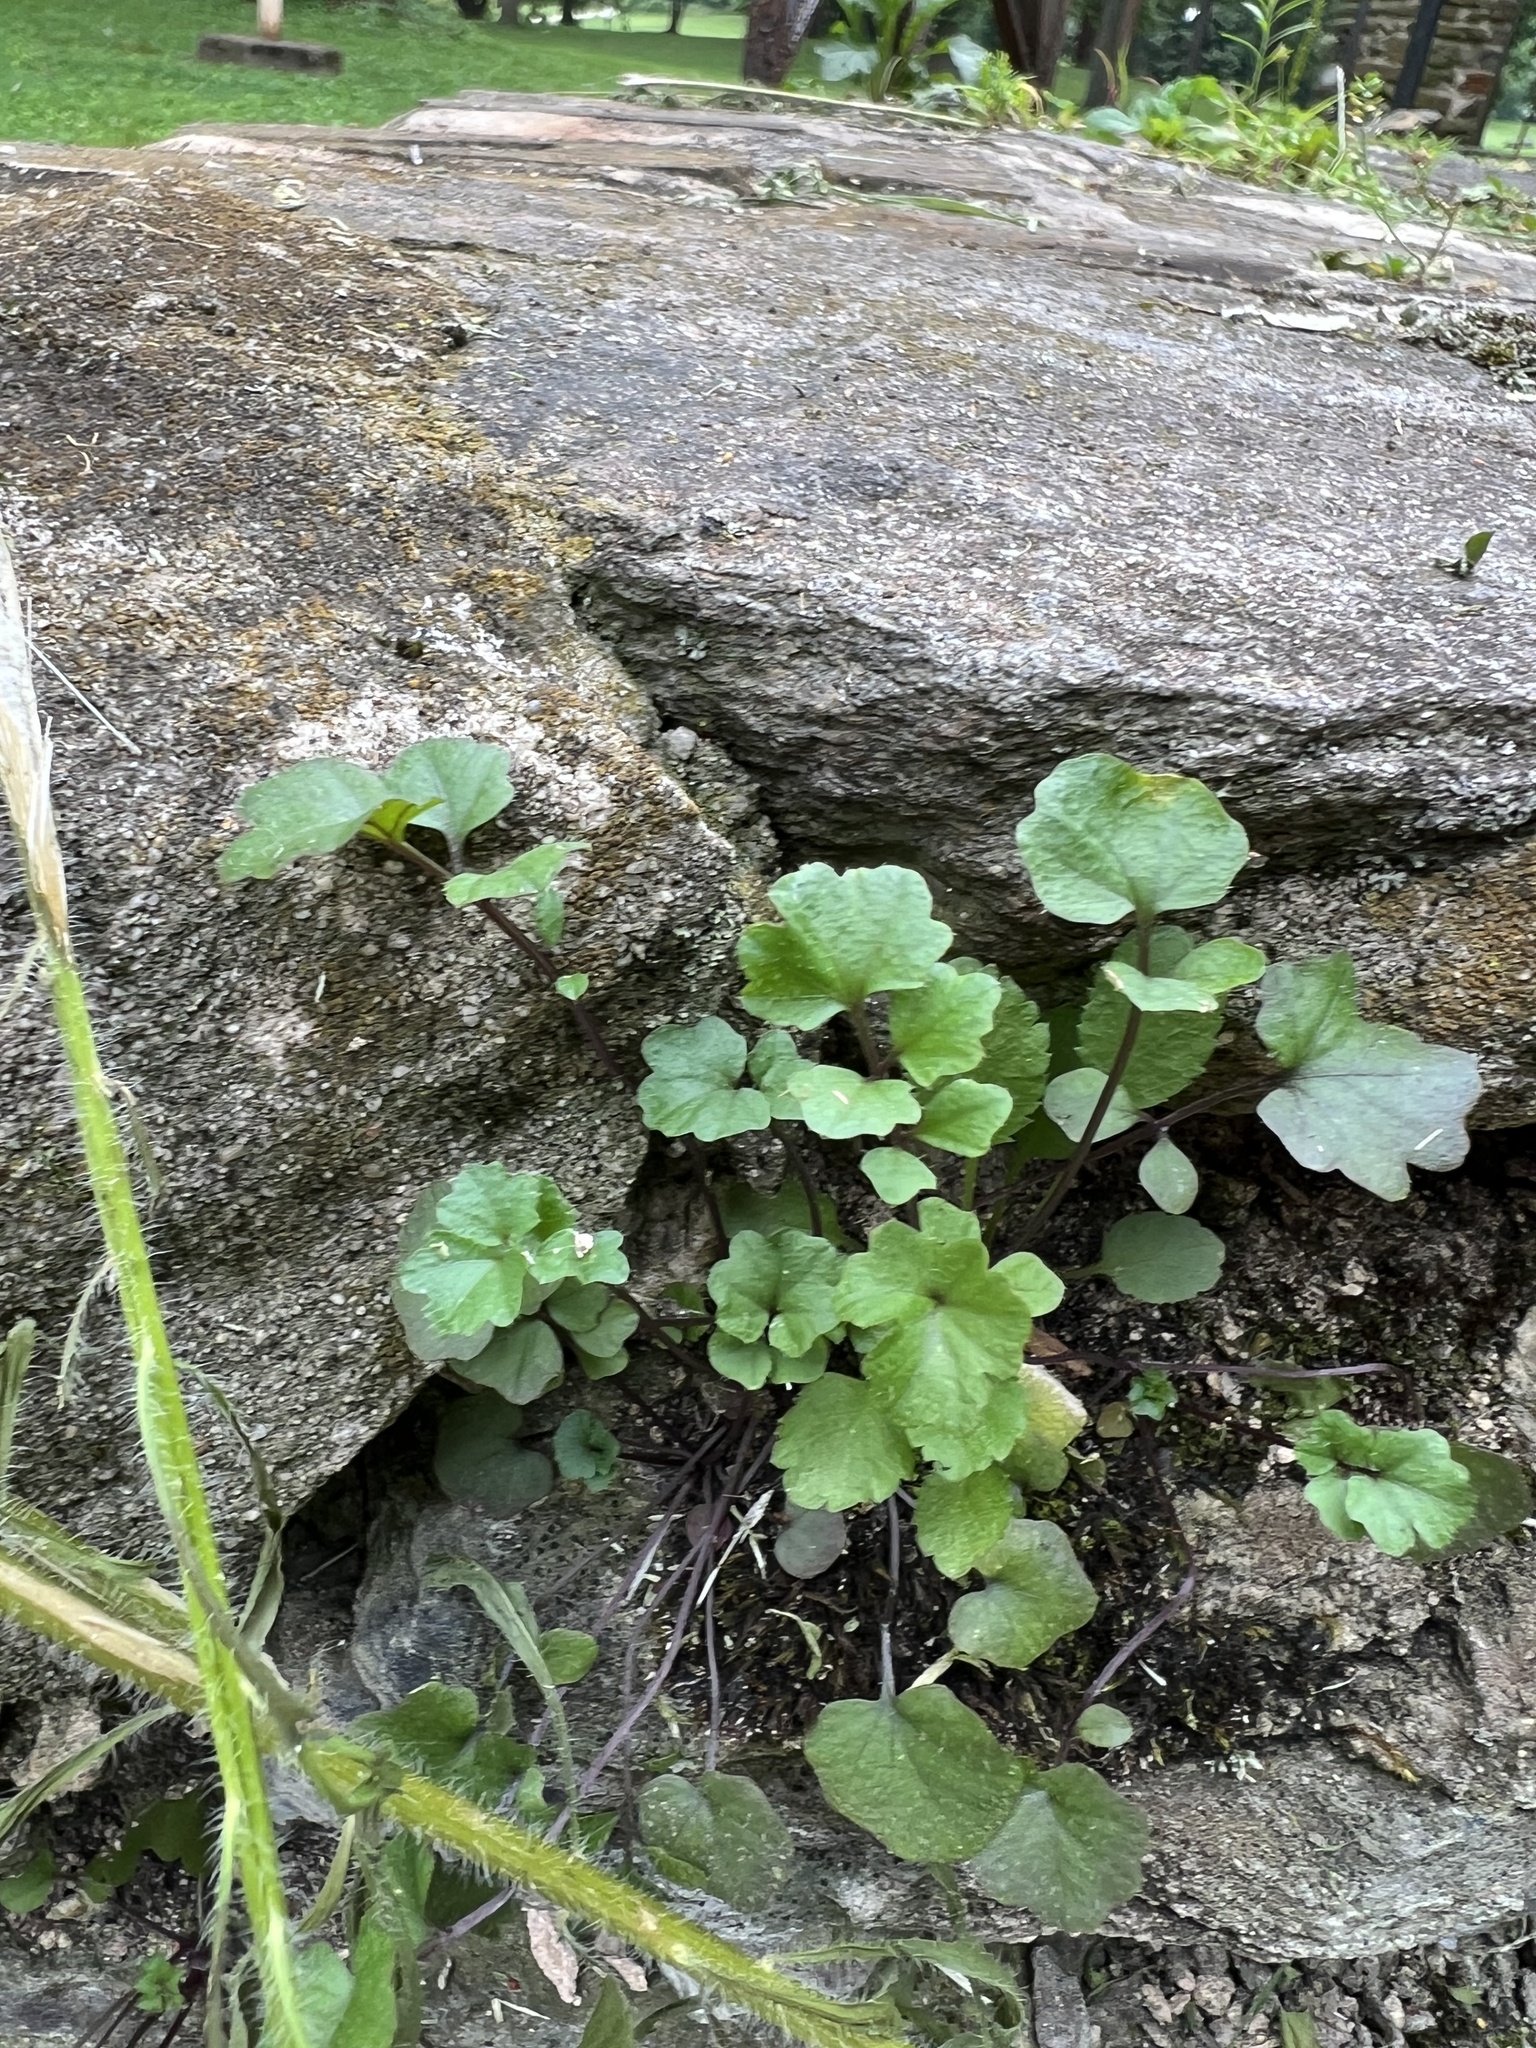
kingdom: Plantae
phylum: Tracheophyta
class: Magnoliopsida
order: Lamiales
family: Plantaginaceae
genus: Cymbalaria
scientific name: Cymbalaria muralis
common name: Ivy-leaved toadflax
